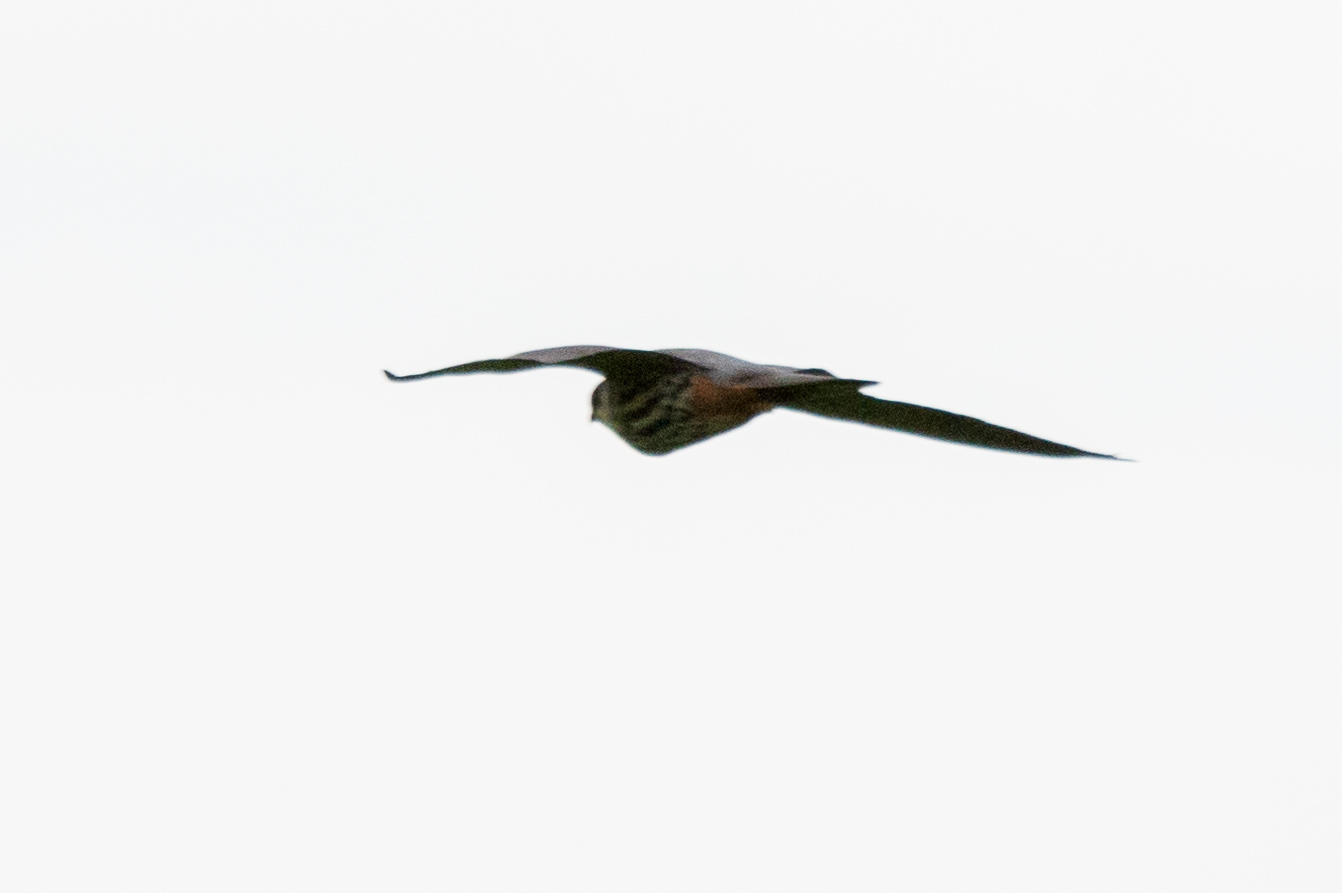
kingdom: Animalia
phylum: Chordata
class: Aves
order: Falconiformes
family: Falconidae
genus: Falco
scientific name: Falco subbuteo
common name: Eurasian hobby
